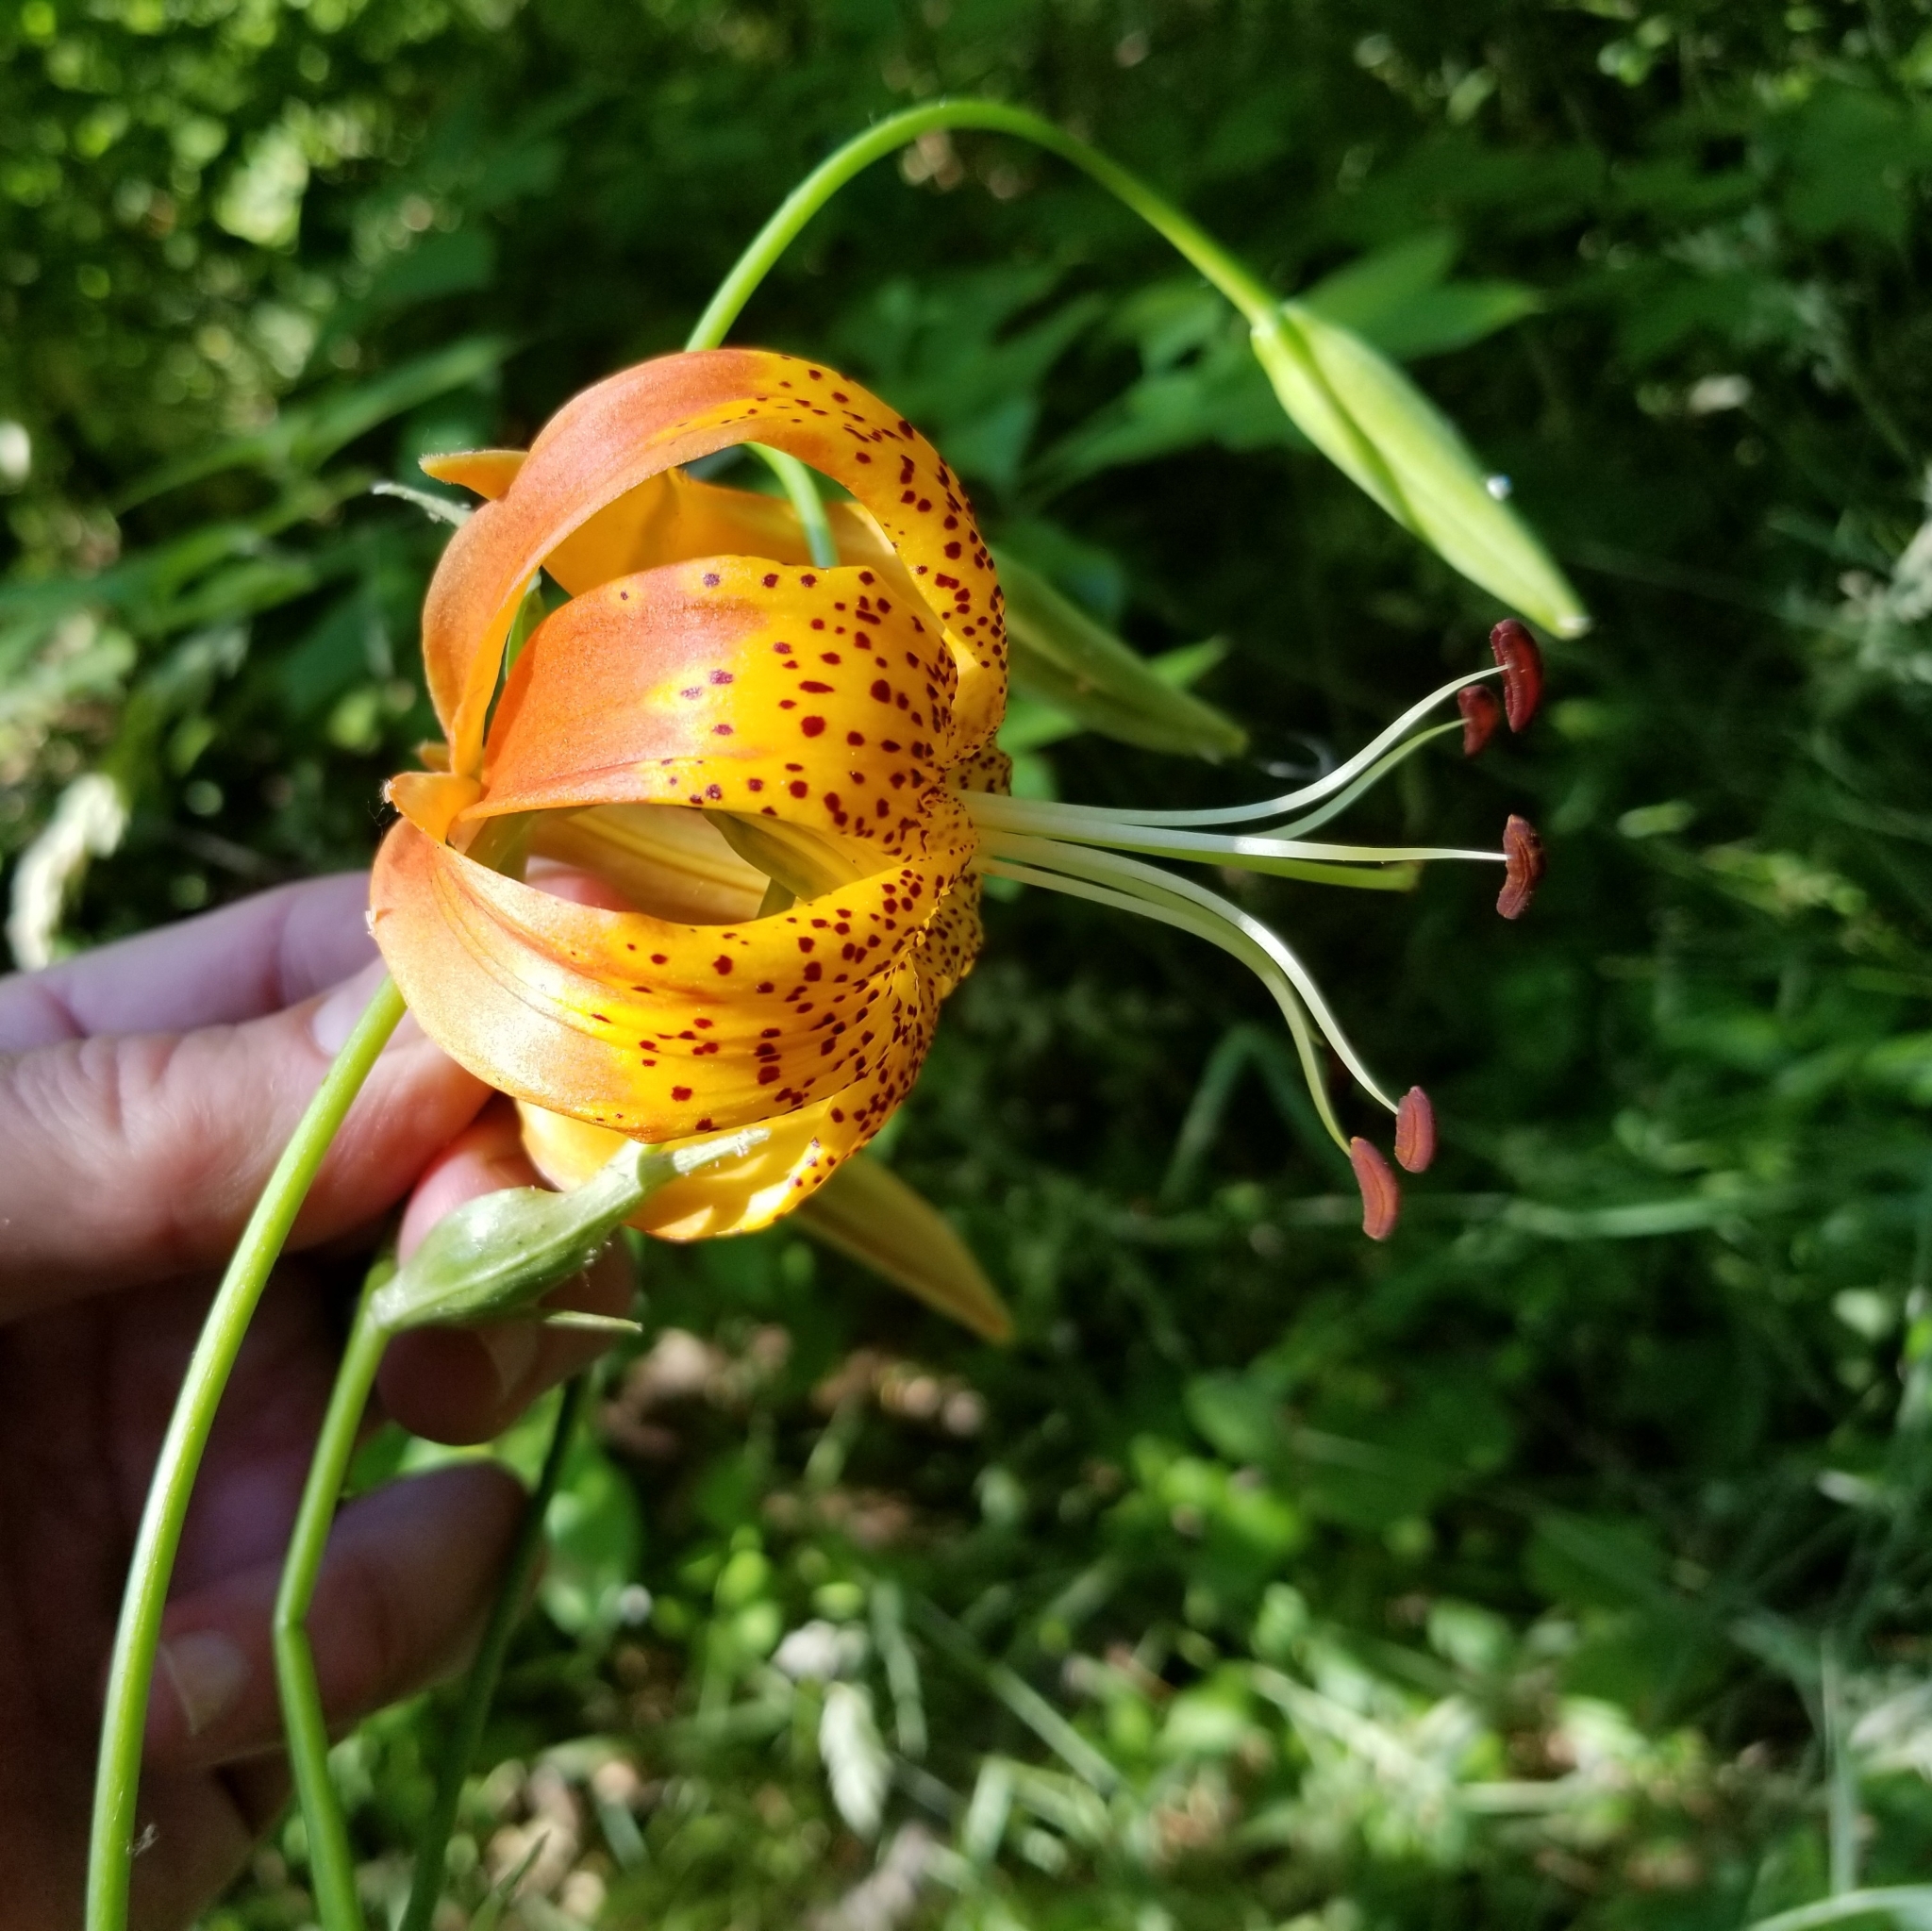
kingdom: Plantae
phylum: Tracheophyta
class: Liliopsida
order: Liliales
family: Liliaceae
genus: Lilium
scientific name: Lilium pardalinum
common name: Panther lily
